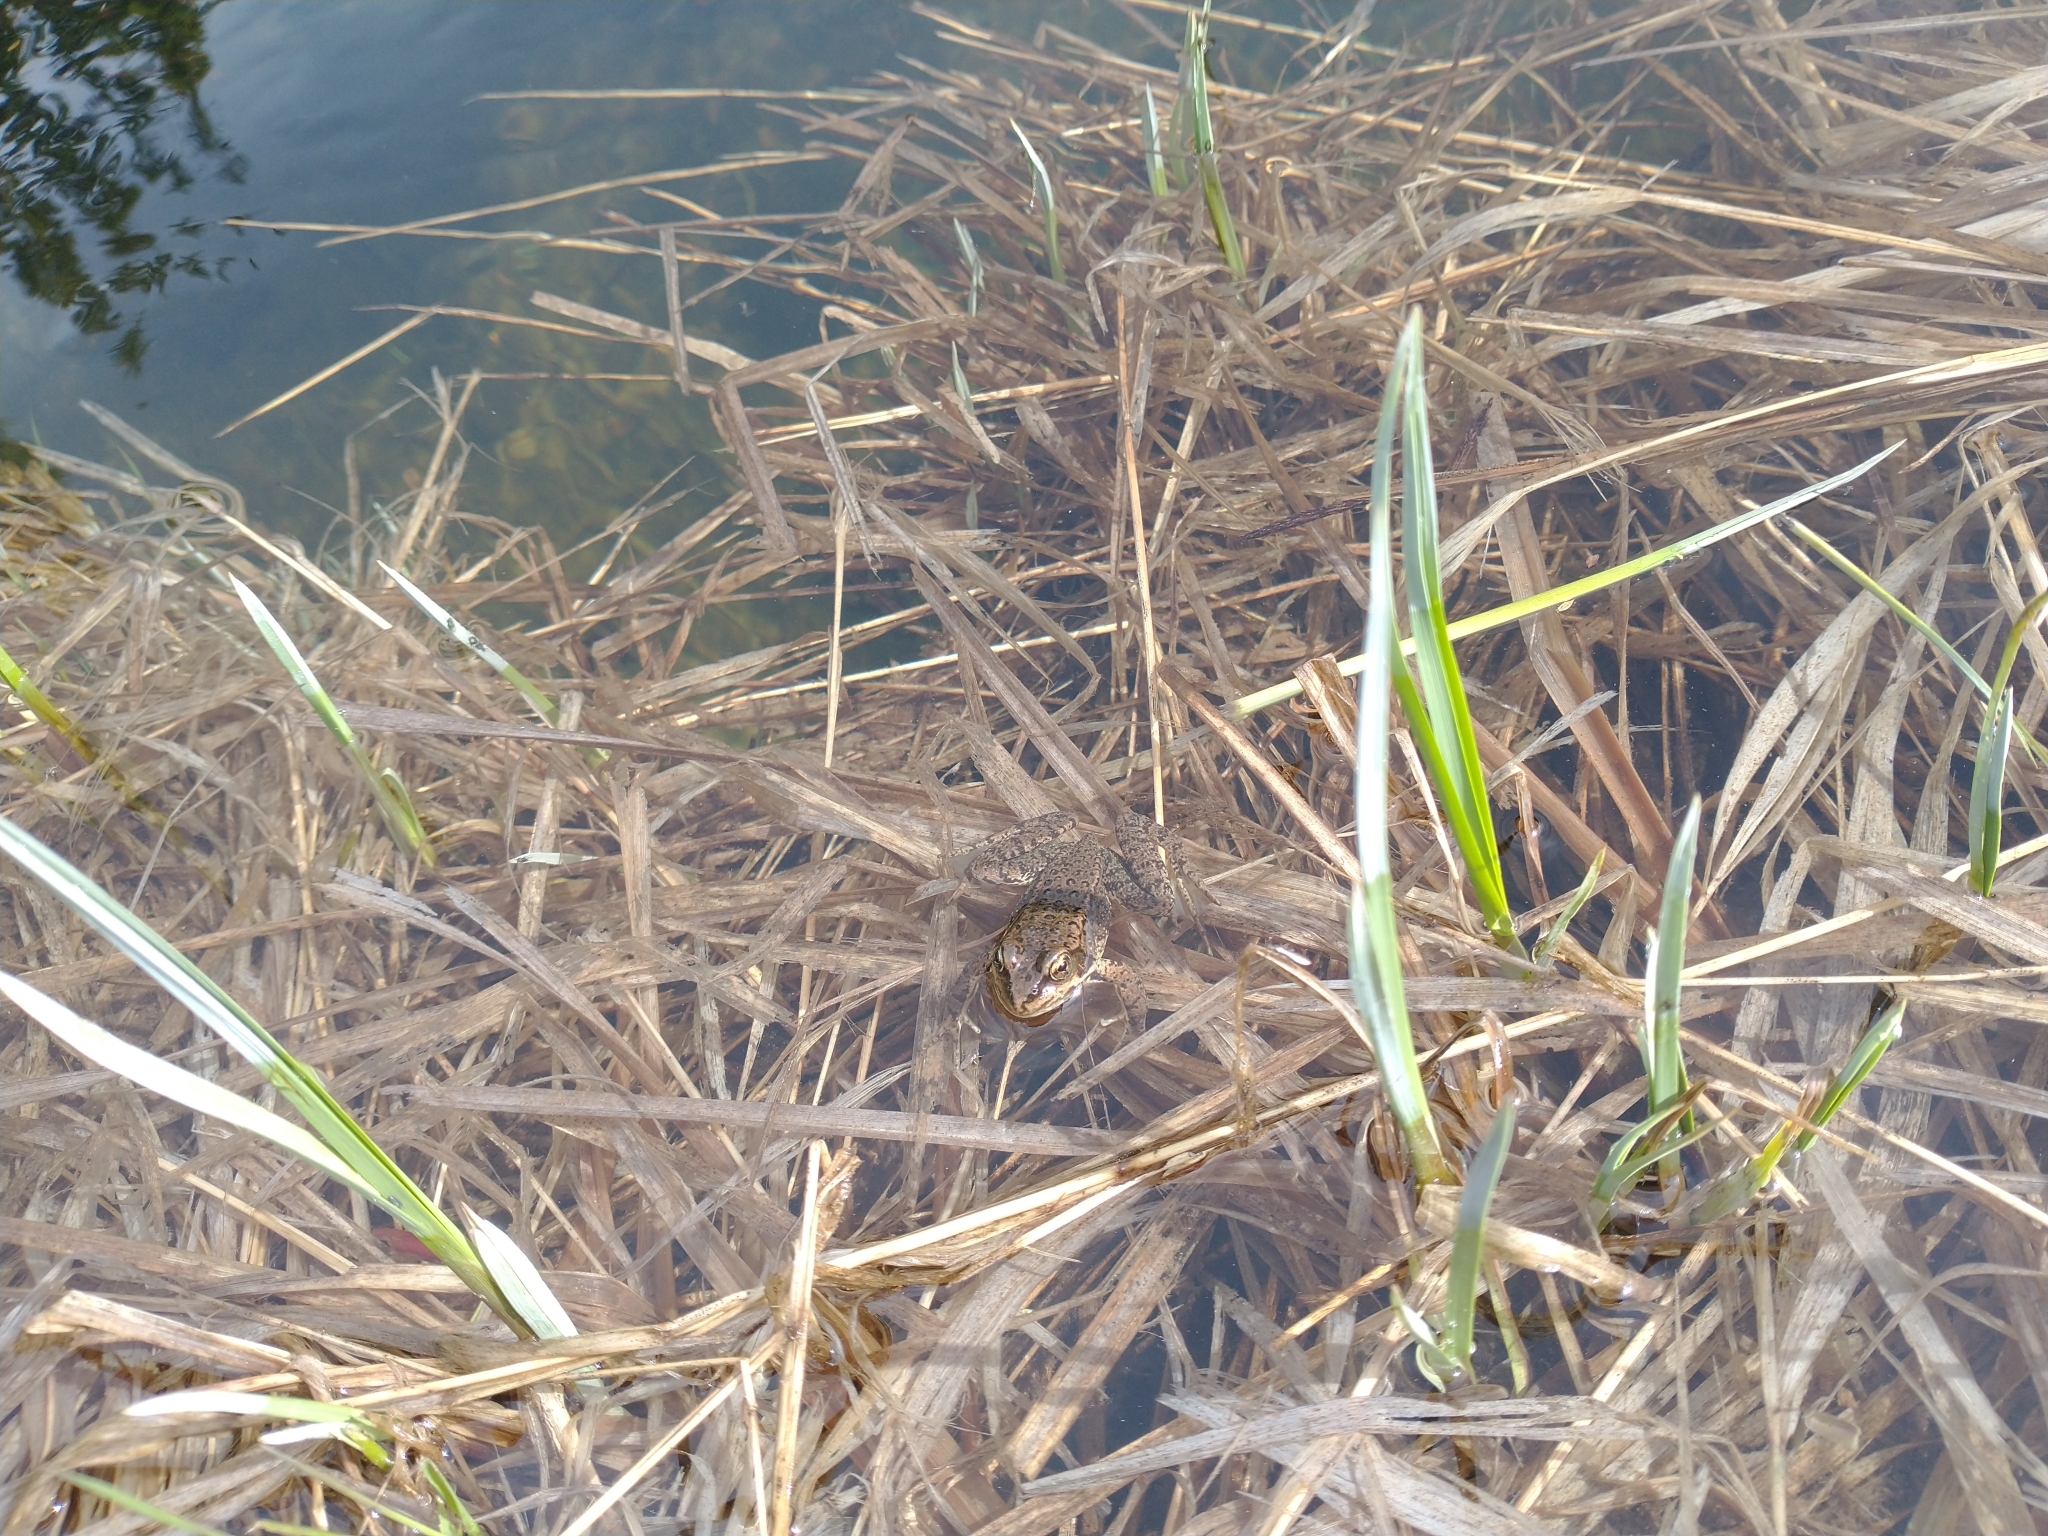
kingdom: Animalia
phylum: Chordata
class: Amphibia
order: Anura
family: Ranidae
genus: Rana
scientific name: Rana cascadae
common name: Cascades frog
